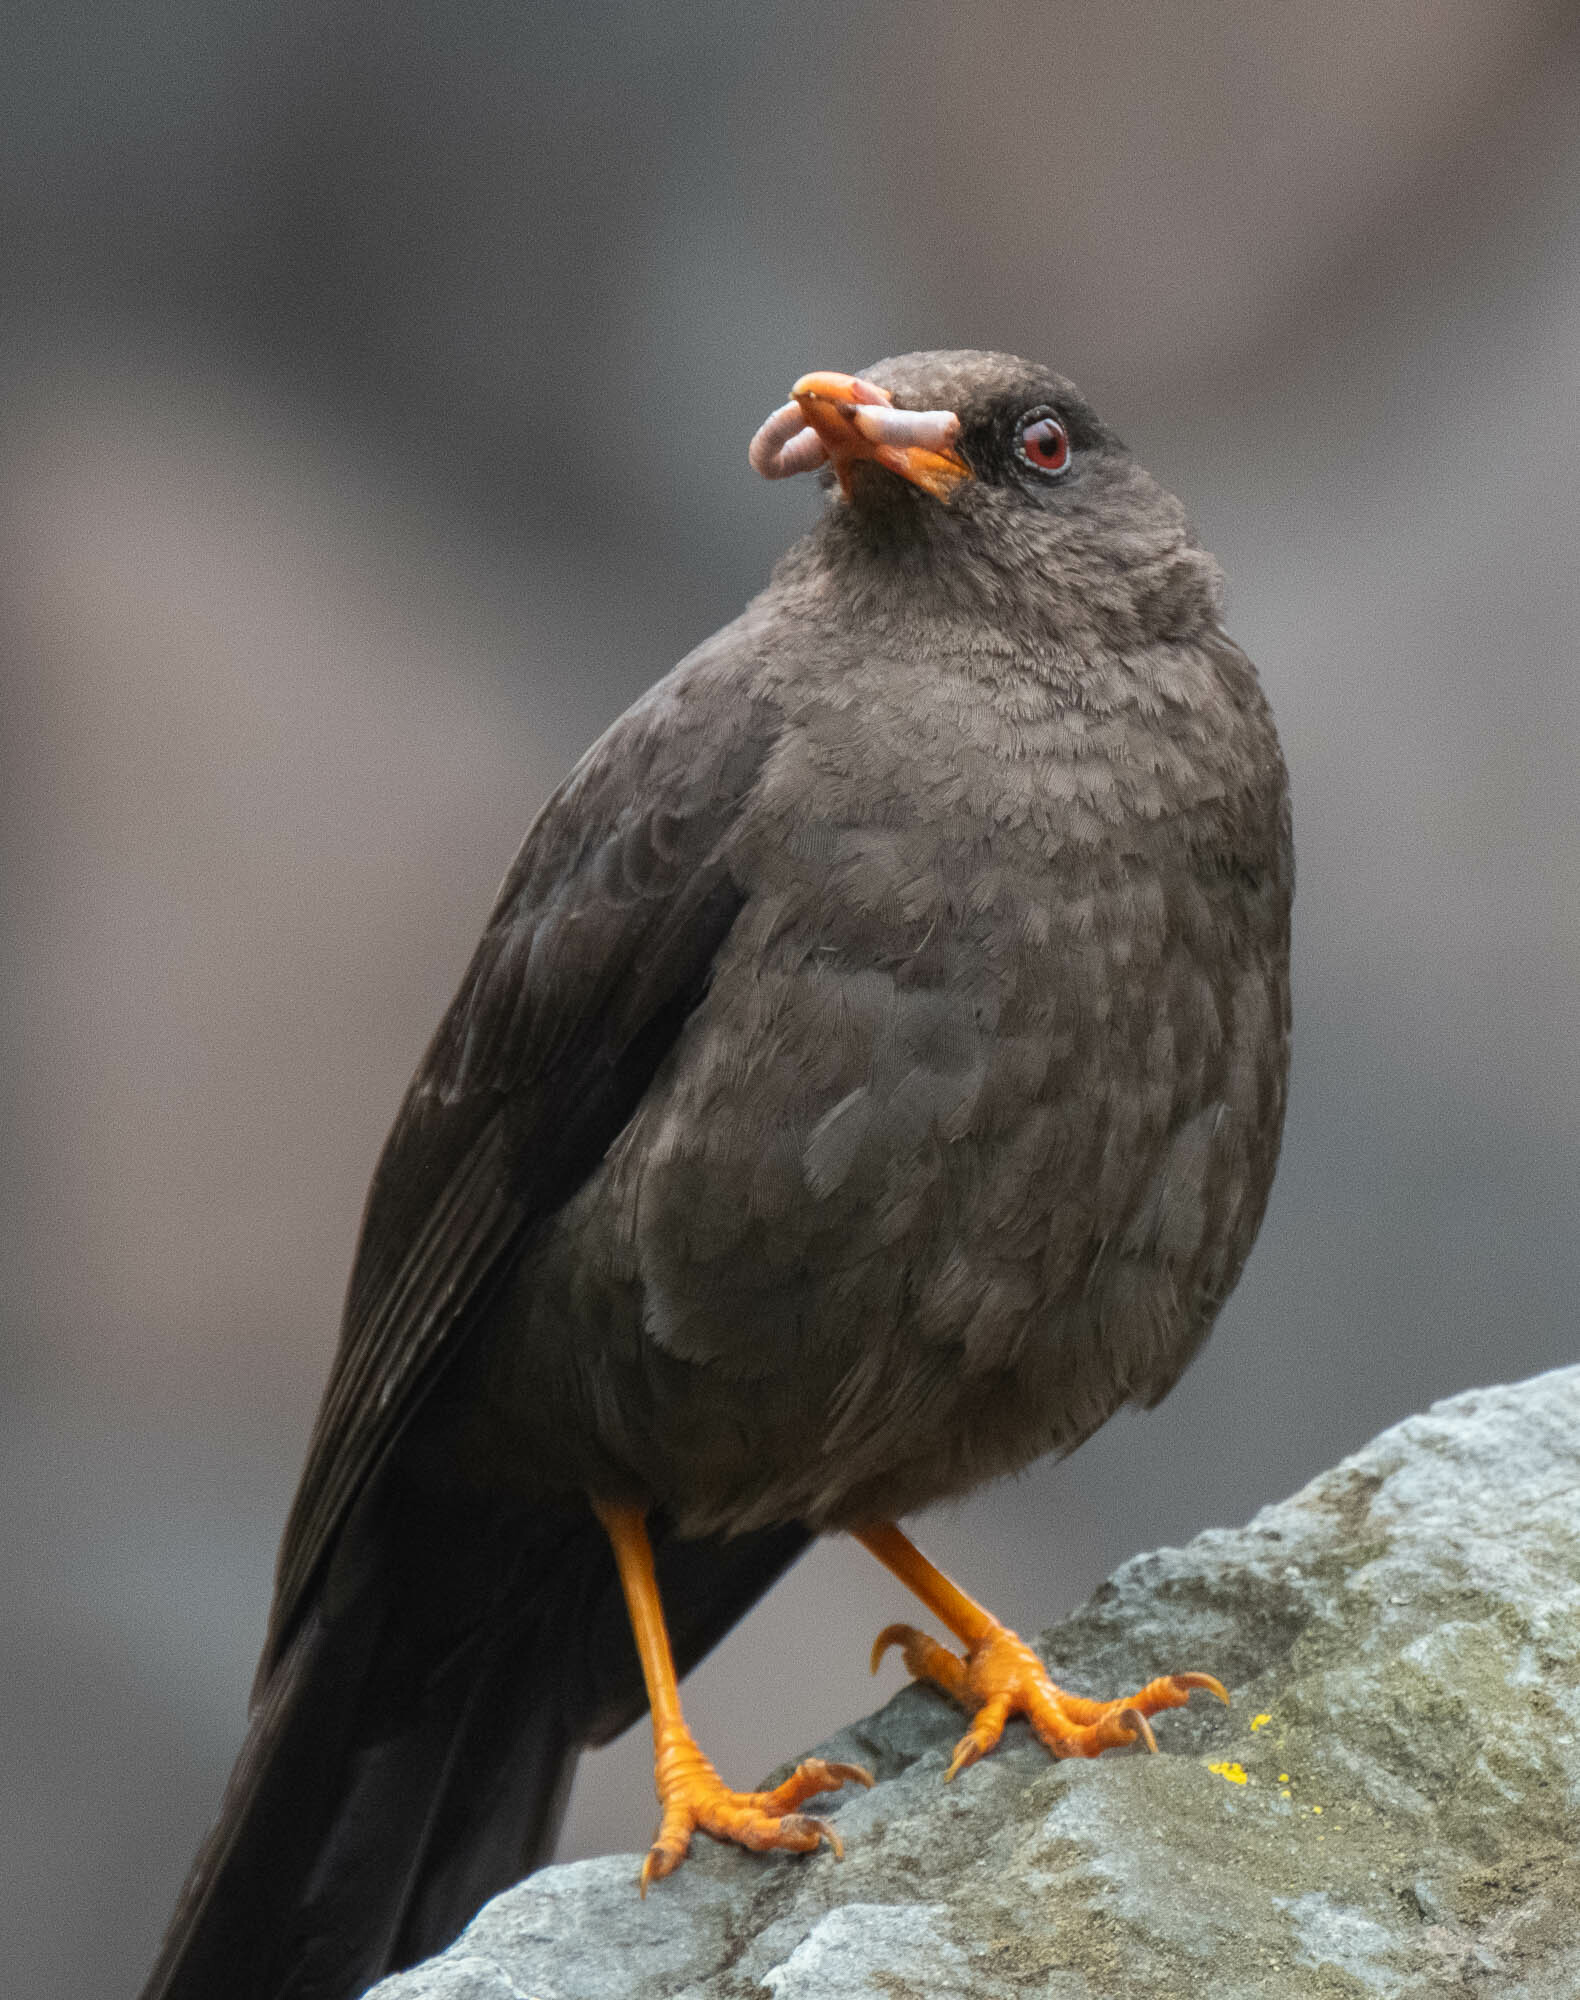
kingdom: Animalia
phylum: Chordata
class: Aves
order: Passeriformes
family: Turdidae
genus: Turdus
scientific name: Turdus fuscater
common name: Great thrush
